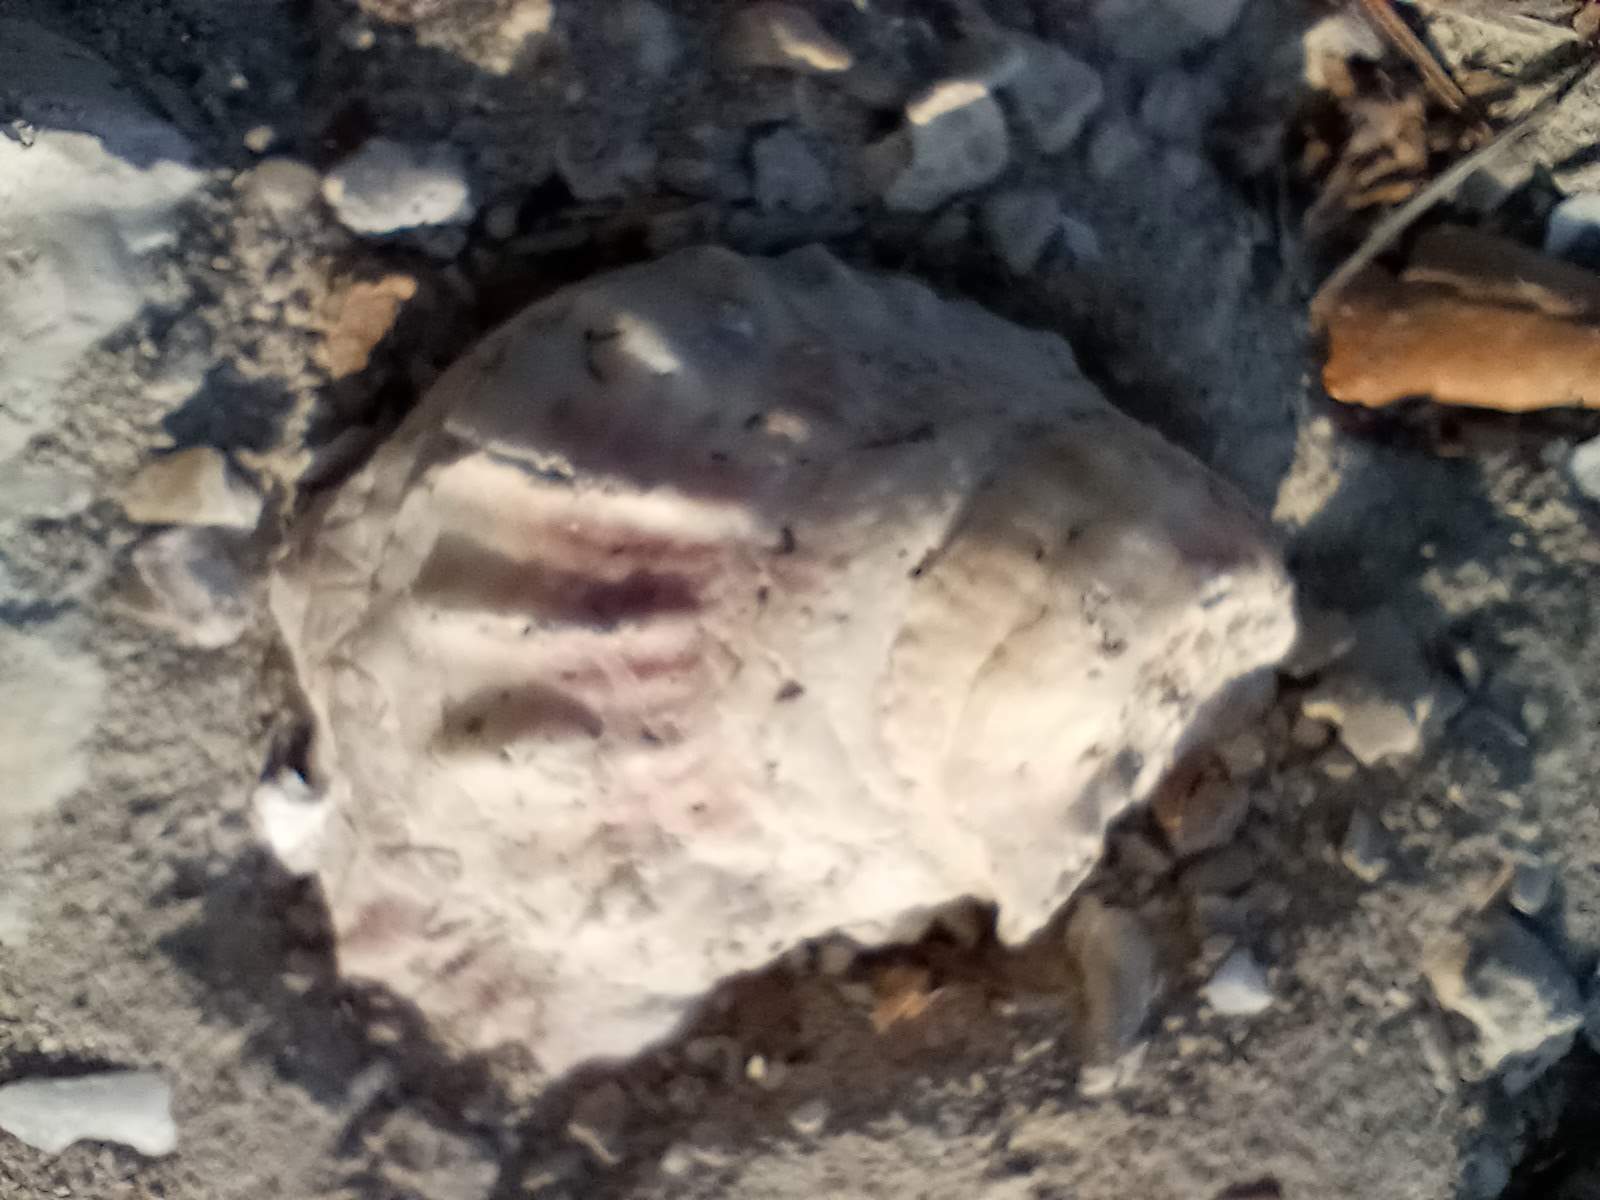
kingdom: Animalia
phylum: Mollusca
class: Bivalvia
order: Ostreida
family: Ostreidae
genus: Crassostrea
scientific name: Crassostrea virginica
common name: American oyster
